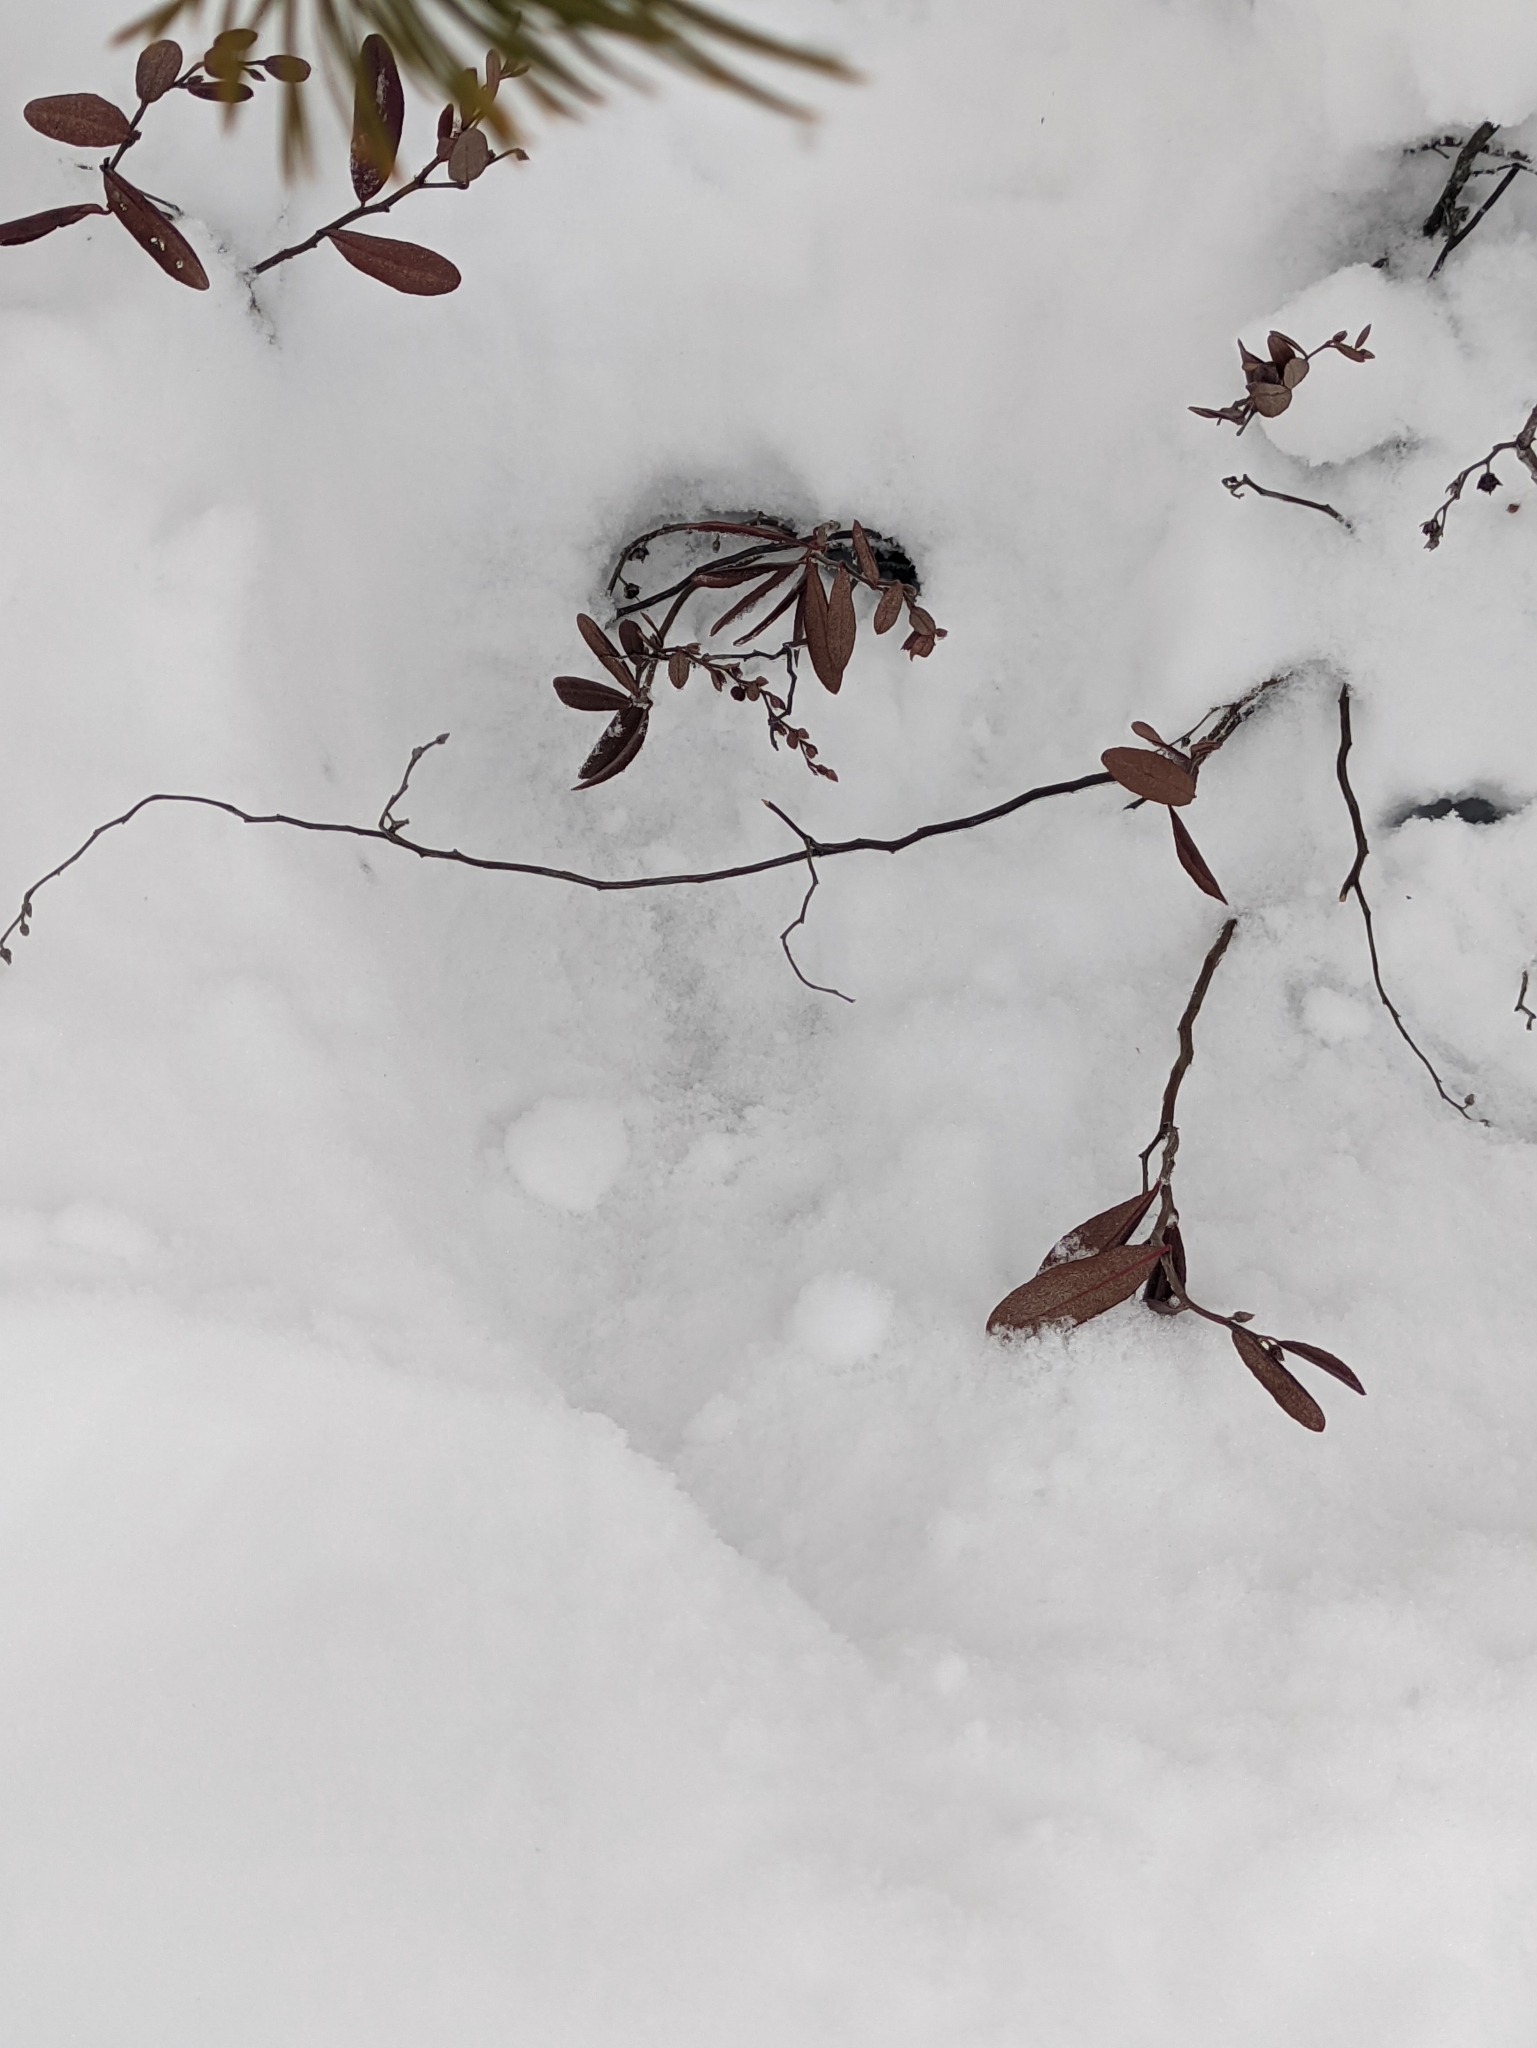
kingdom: Plantae
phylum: Tracheophyta
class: Magnoliopsida
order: Ericales
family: Ericaceae
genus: Chamaedaphne
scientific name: Chamaedaphne calyculata
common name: Leatherleaf
